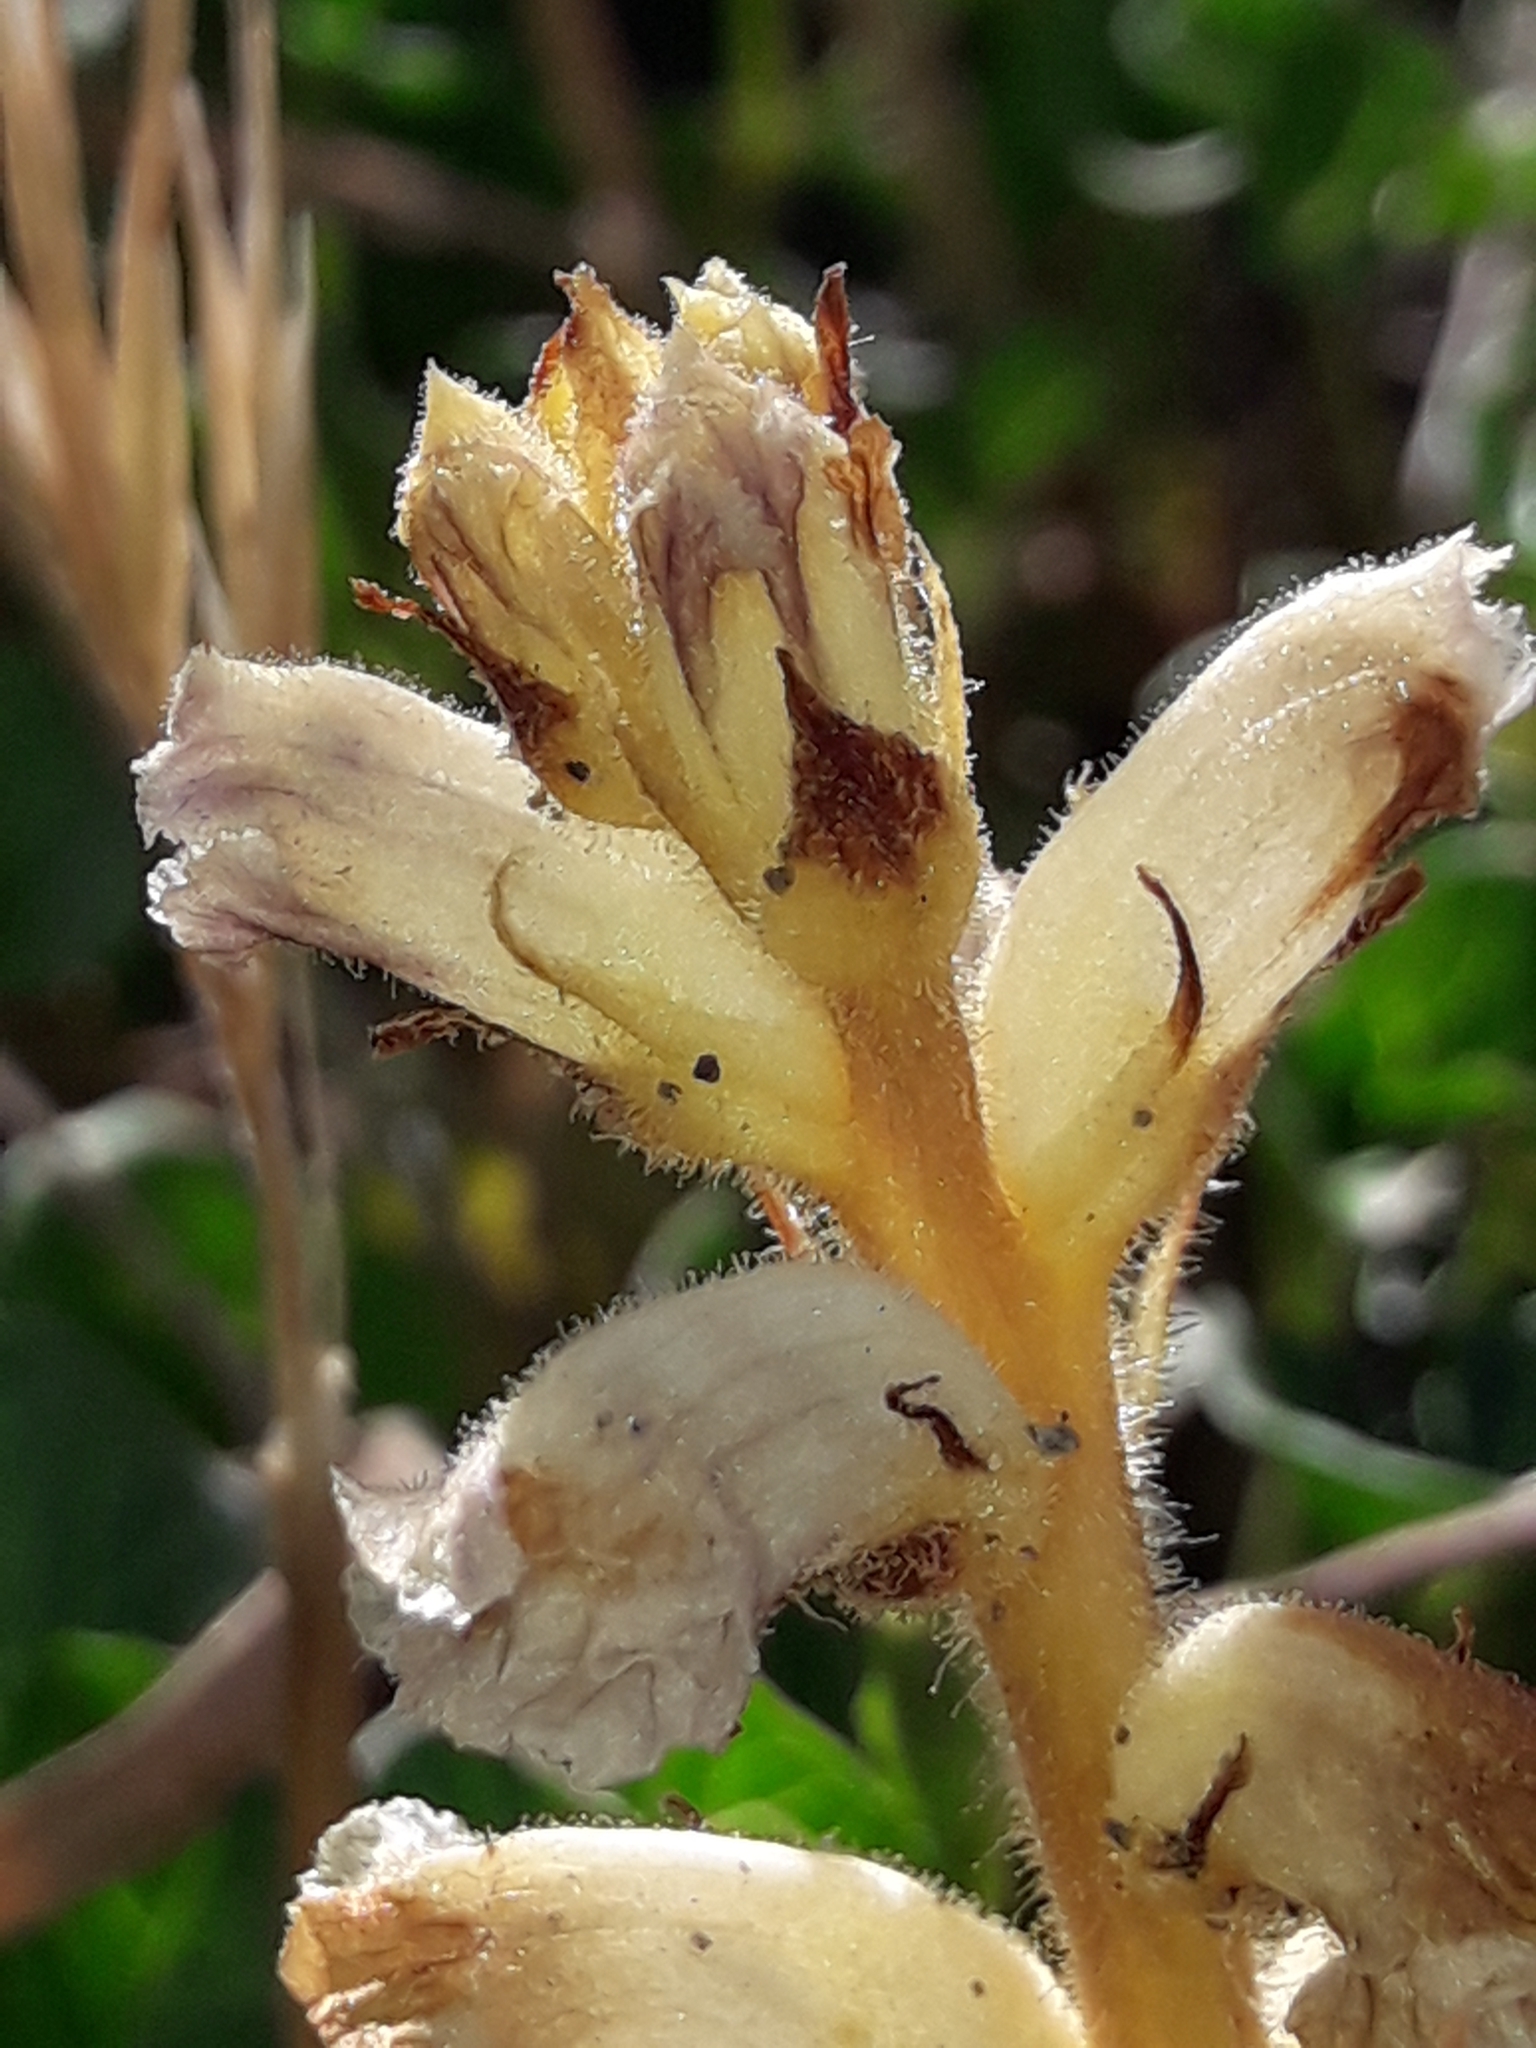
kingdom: Plantae
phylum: Tracheophyta
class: Magnoliopsida
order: Lamiales
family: Orobanchaceae
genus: Orobanche
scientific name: Orobanche minor
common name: Common broomrape
